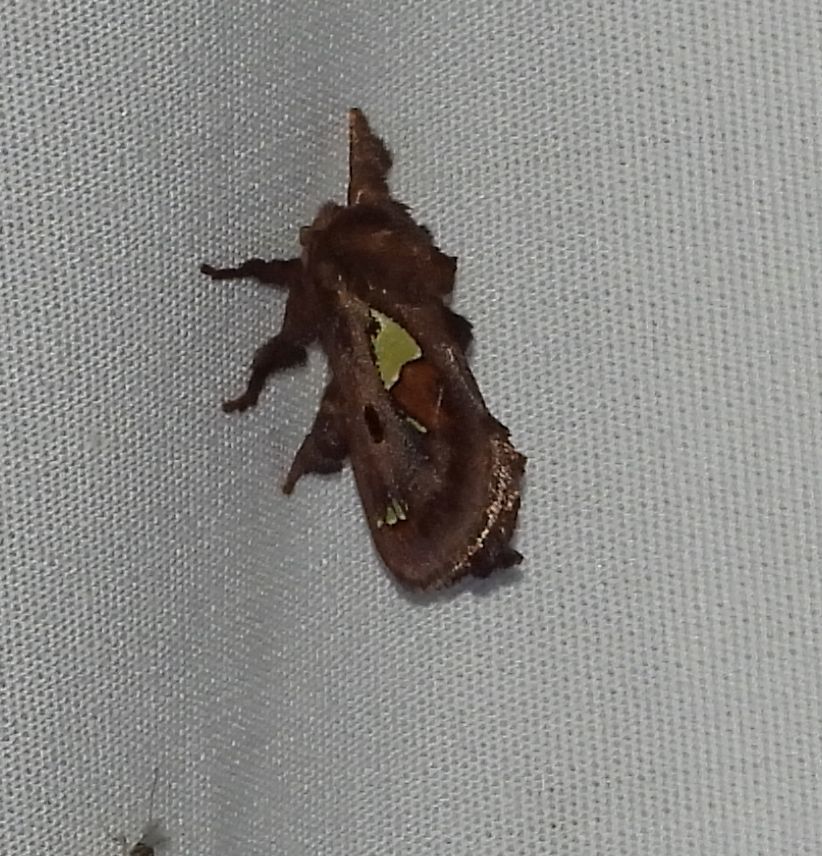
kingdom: Animalia
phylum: Arthropoda
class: Insecta
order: Lepidoptera
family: Limacodidae
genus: Euclea
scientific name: Euclea delphinii
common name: Spiny oak-slug moth
